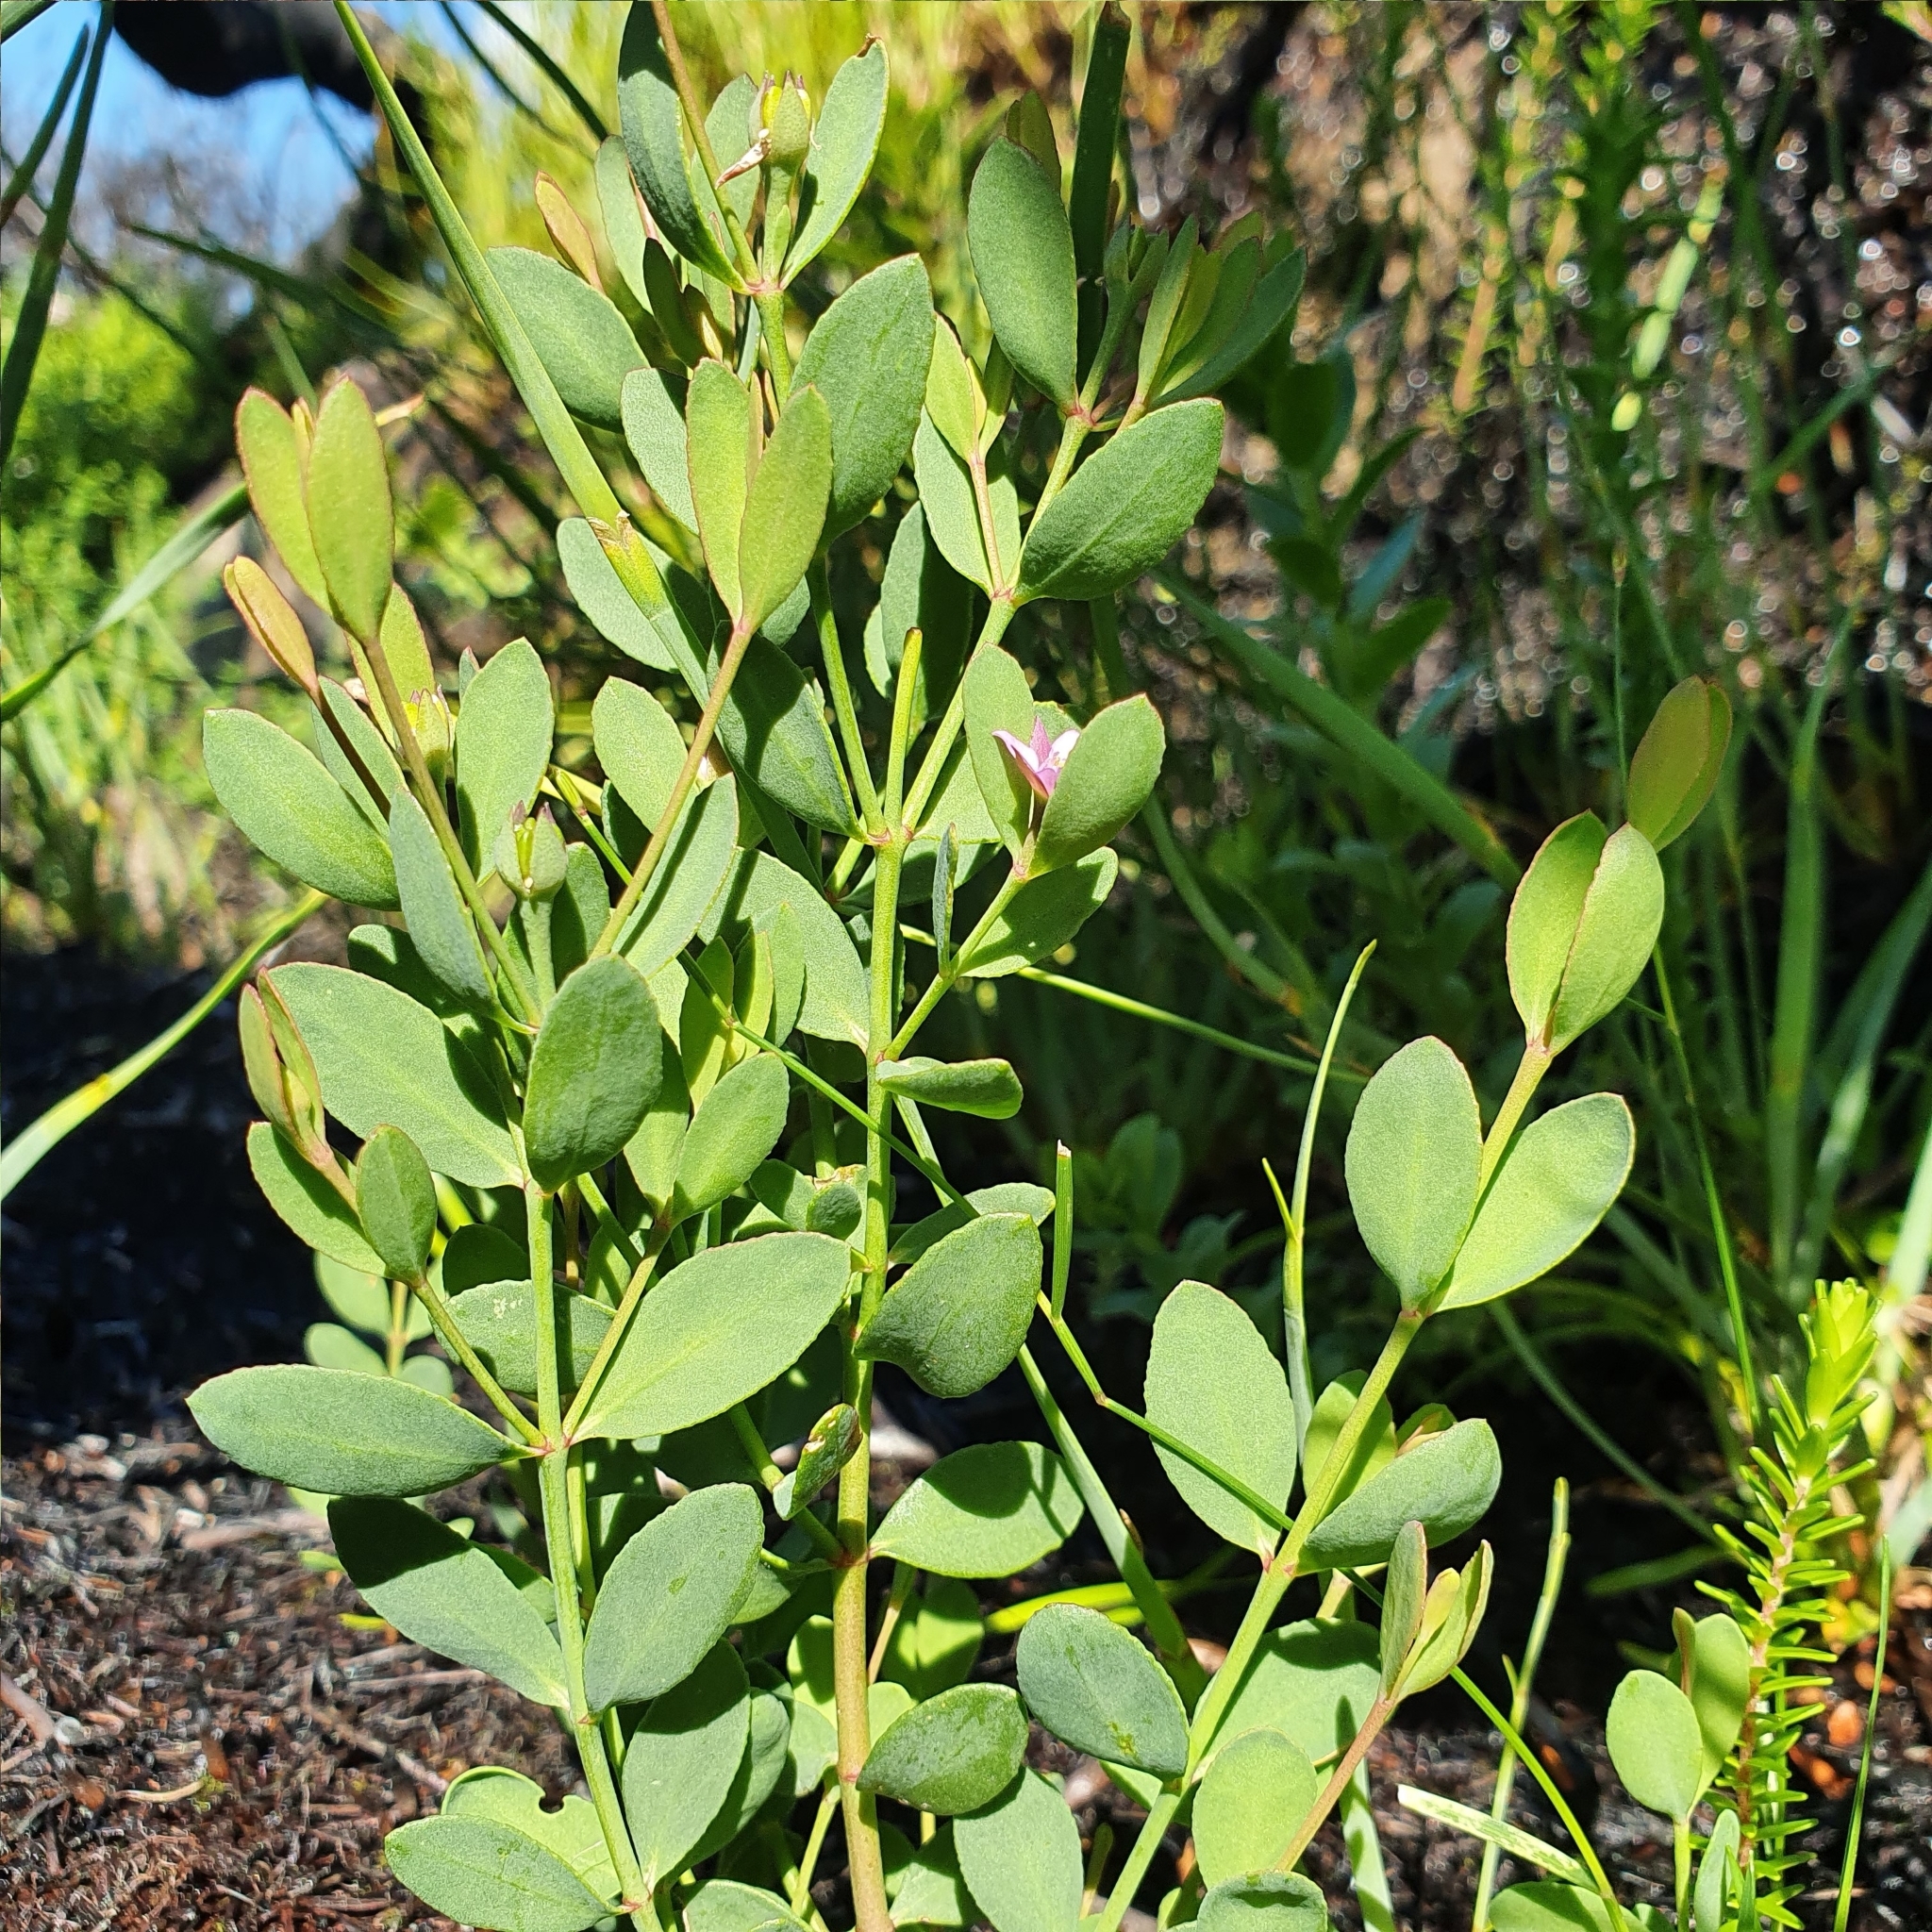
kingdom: Plantae
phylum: Tracheophyta
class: Magnoliopsida
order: Sapindales
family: Rutaceae
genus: Boronia
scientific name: Boronia parviflora
